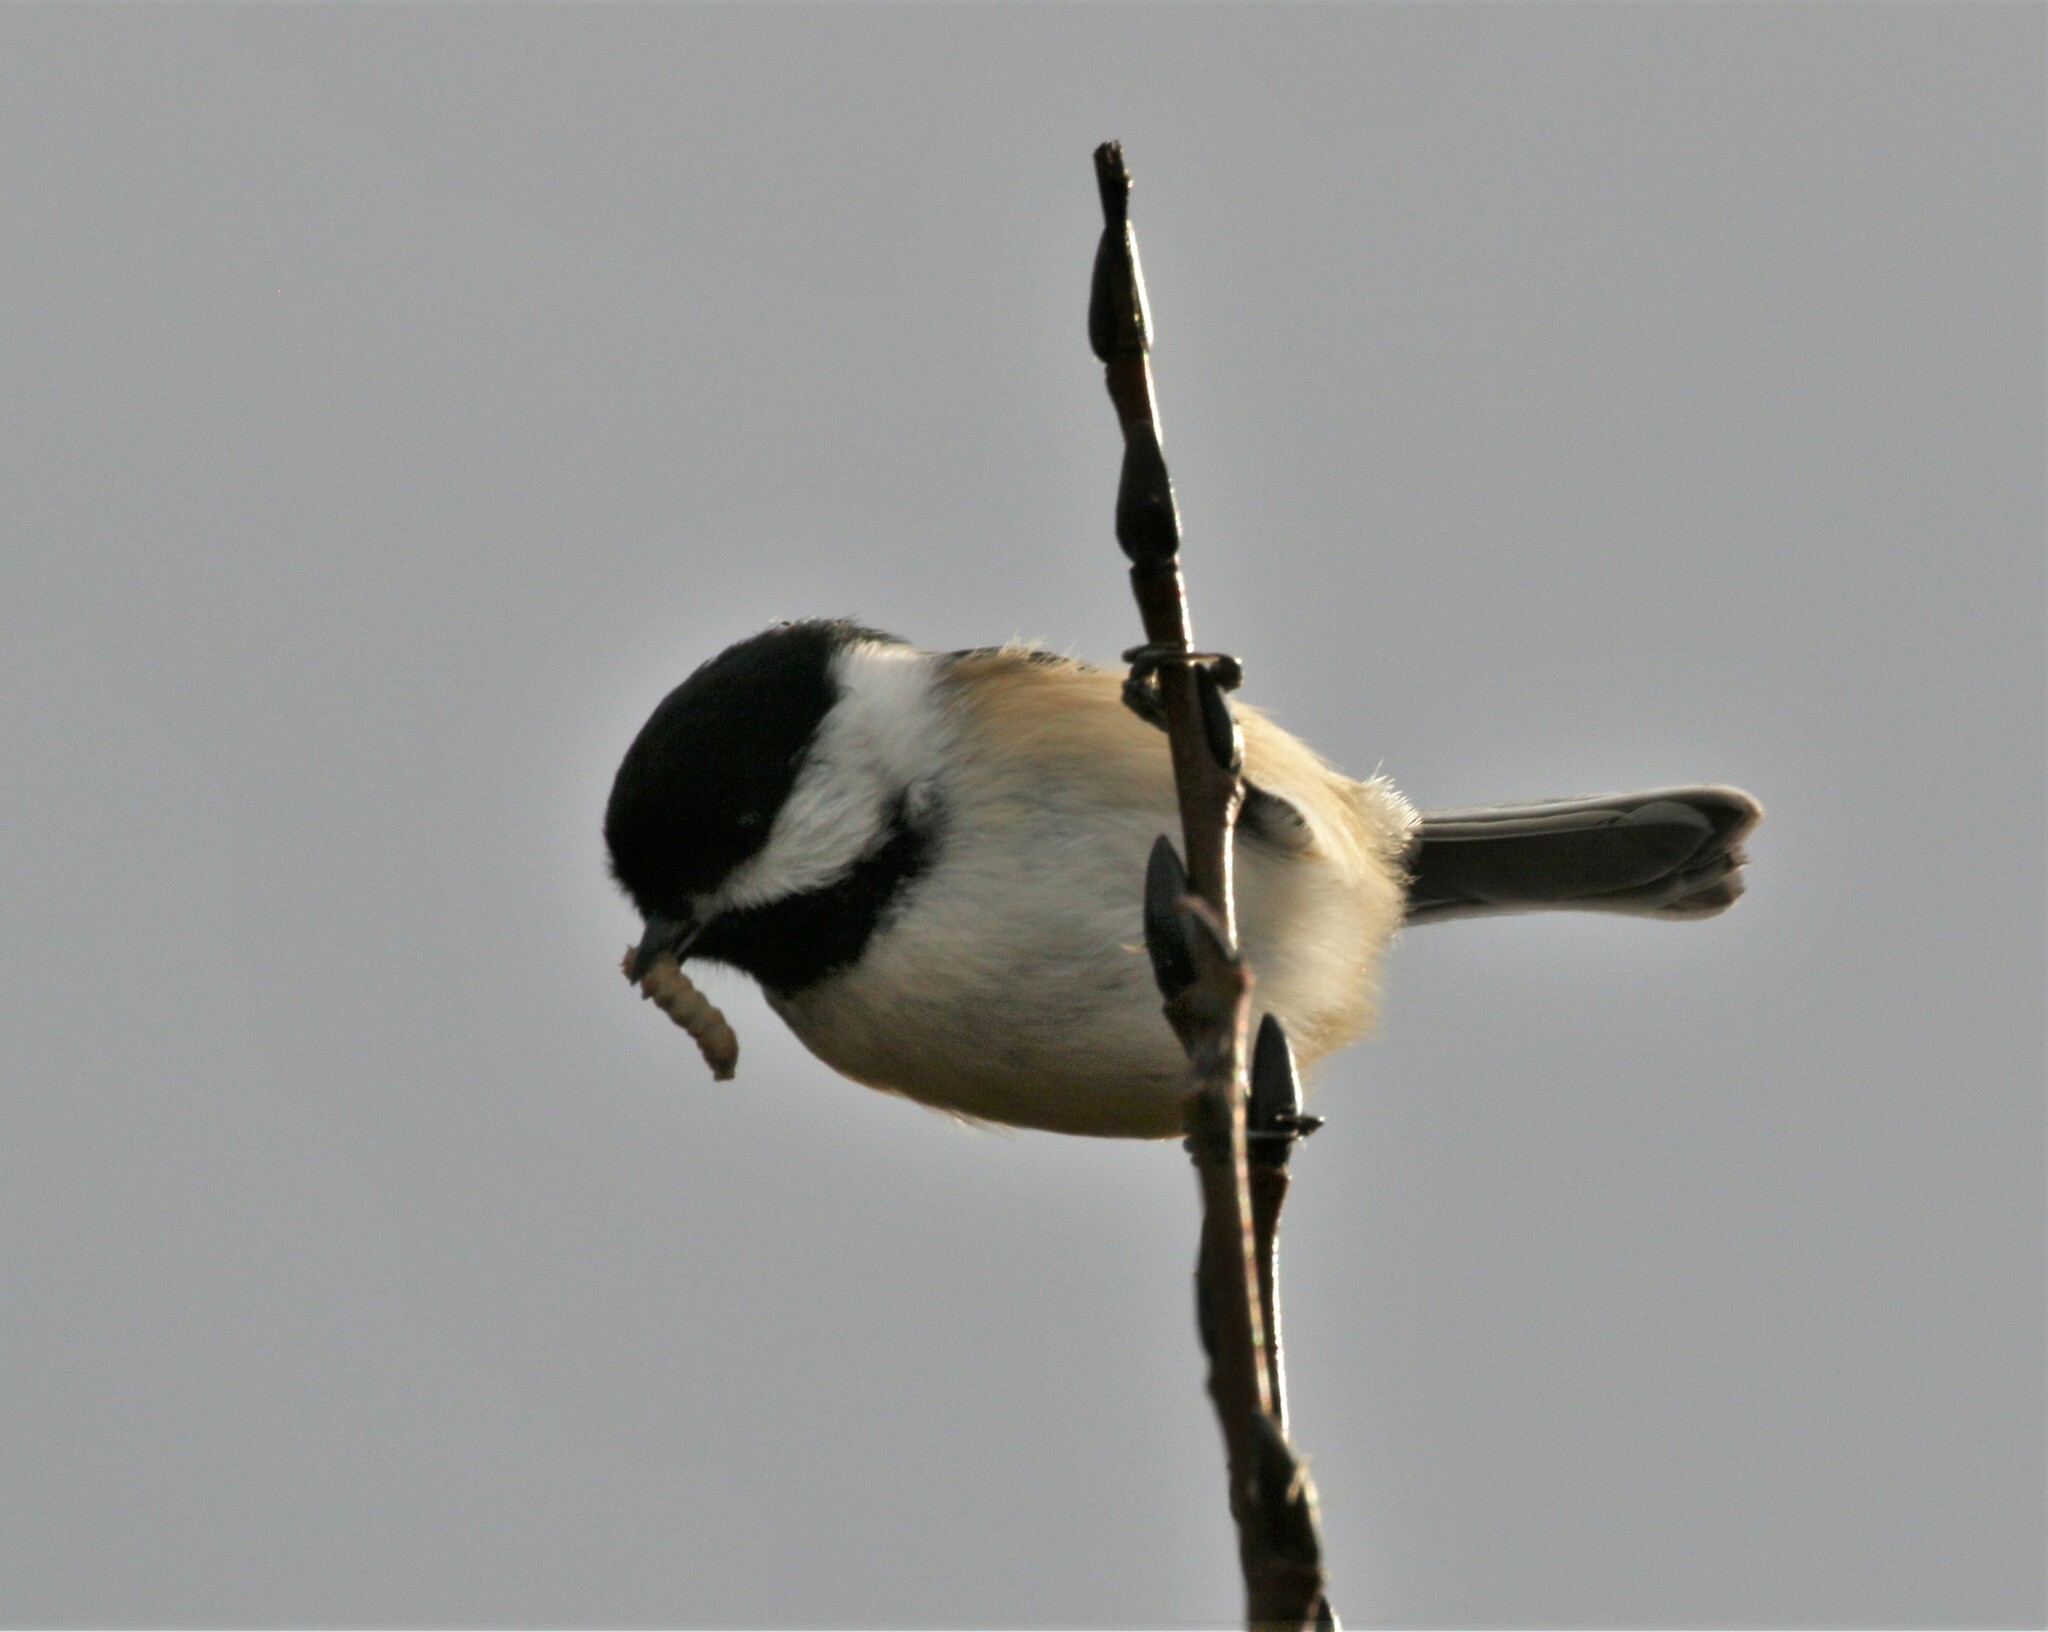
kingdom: Animalia
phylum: Chordata
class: Aves
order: Passeriformes
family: Paridae
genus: Poecile
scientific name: Poecile atricapillus
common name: Black-capped chickadee
